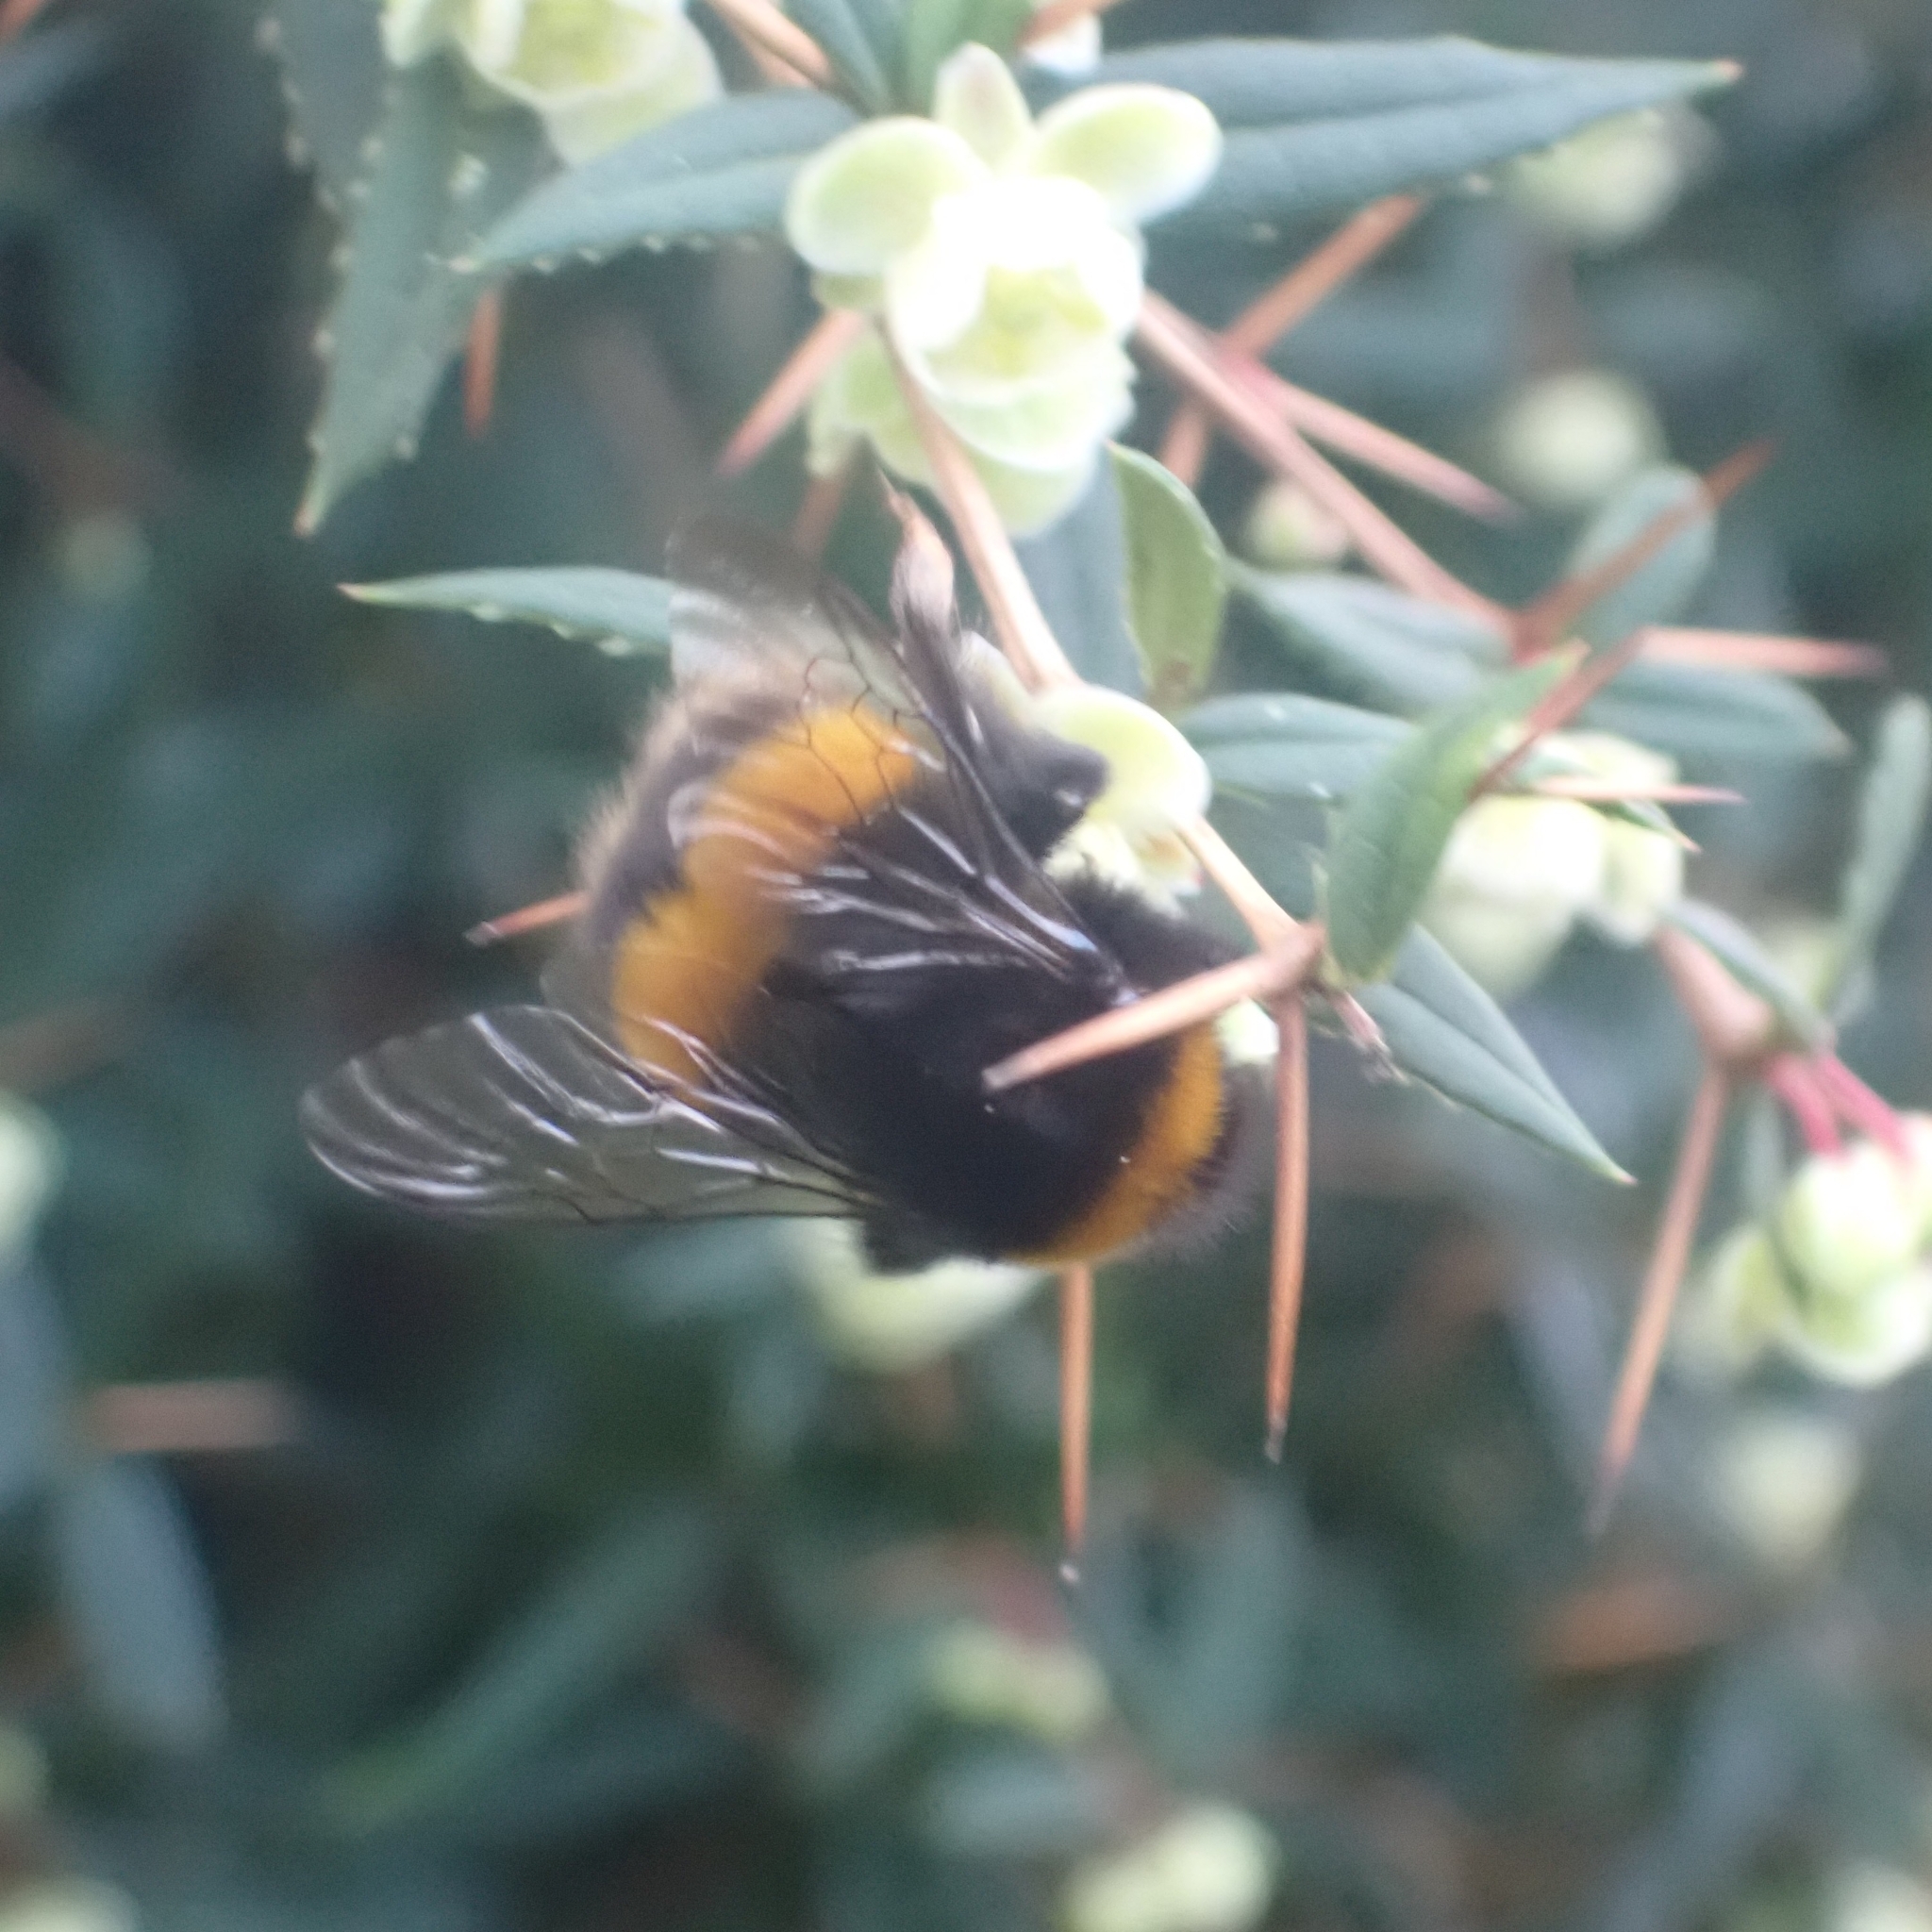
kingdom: Animalia
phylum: Arthropoda
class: Insecta
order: Hymenoptera
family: Apidae
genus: Bombus
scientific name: Bombus terrestris
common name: Buff-tailed bumblebee
